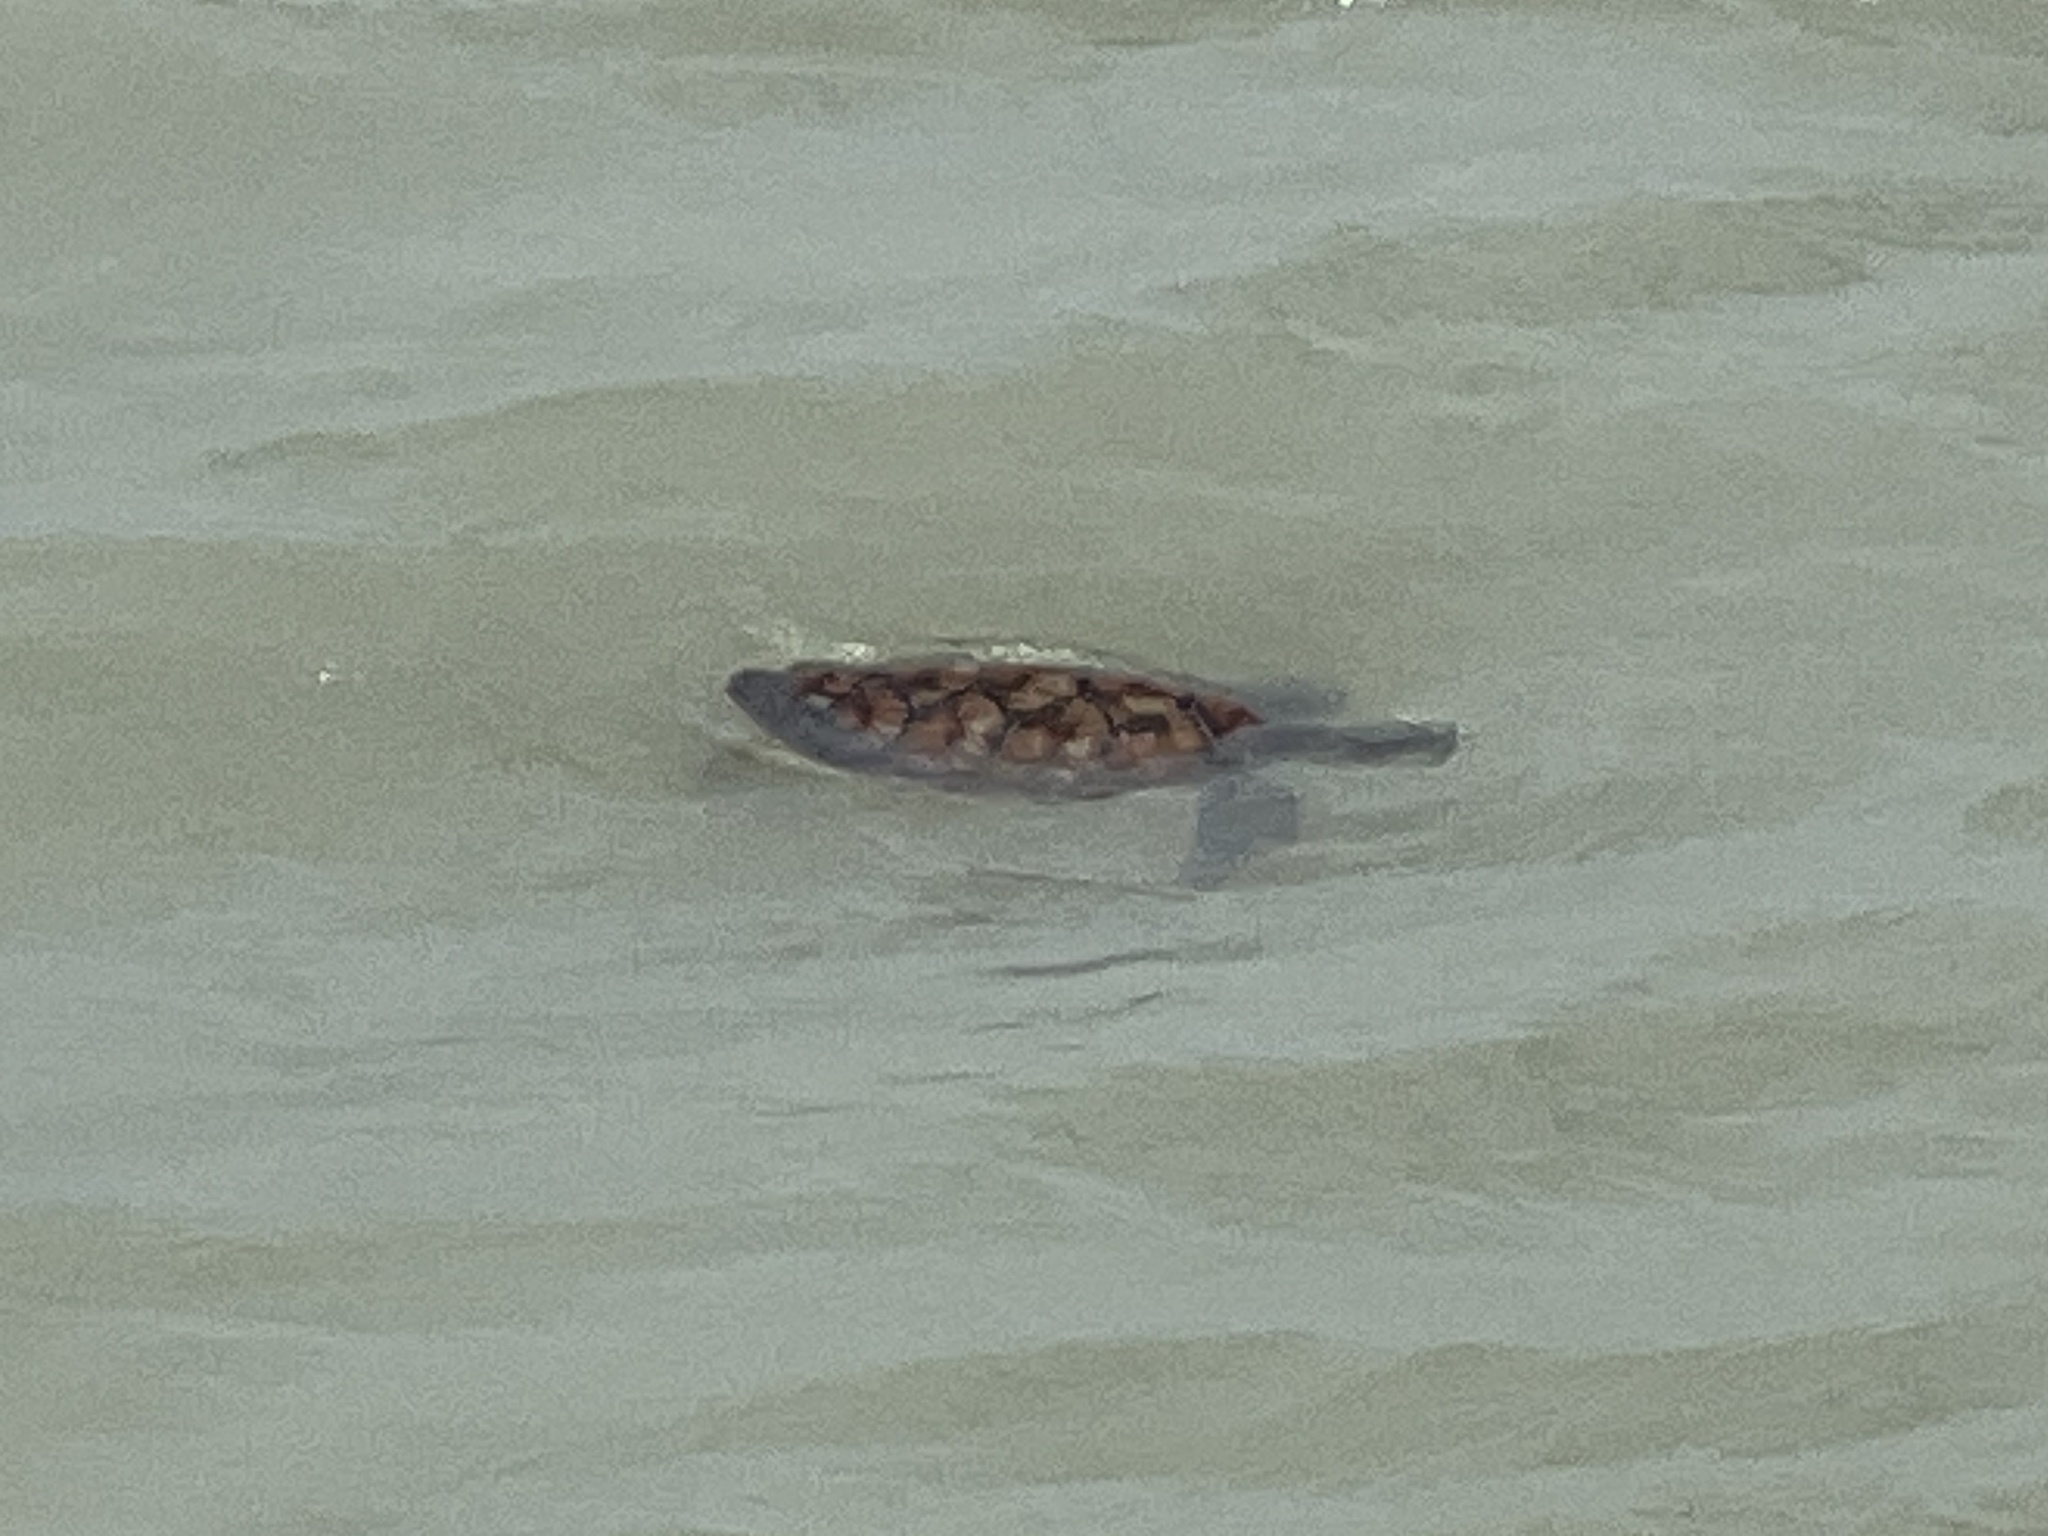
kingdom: Animalia
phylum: Chordata
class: Testudines
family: Cheloniidae
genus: Chelonia
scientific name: Chelonia mydas
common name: Green turtle
